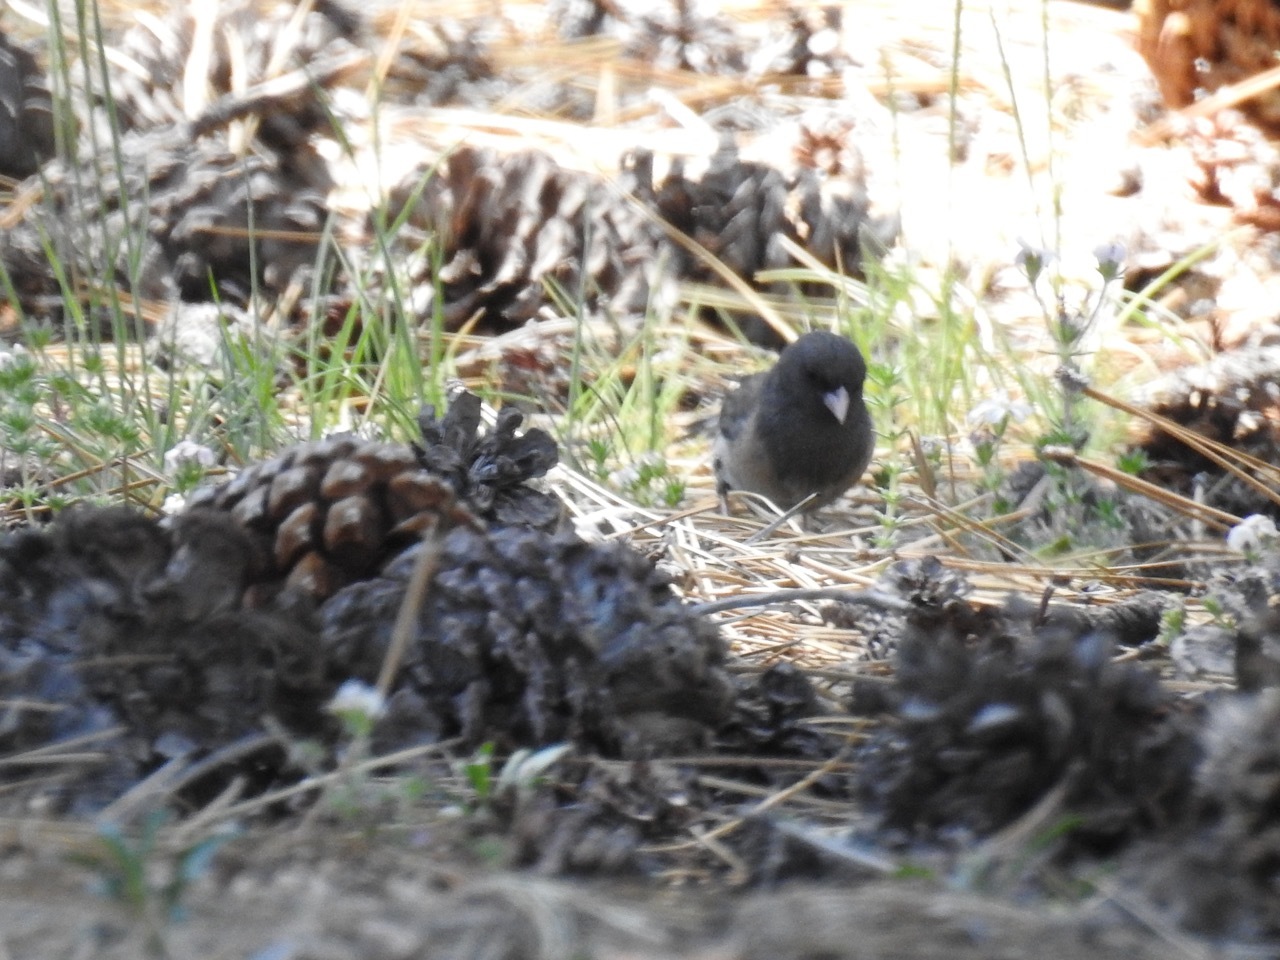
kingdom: Animalia
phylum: Chordata
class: Aves
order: Passeriformes
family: Passerellidae
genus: Junco
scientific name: Junco hyemalis
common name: Dark-eyed junco
